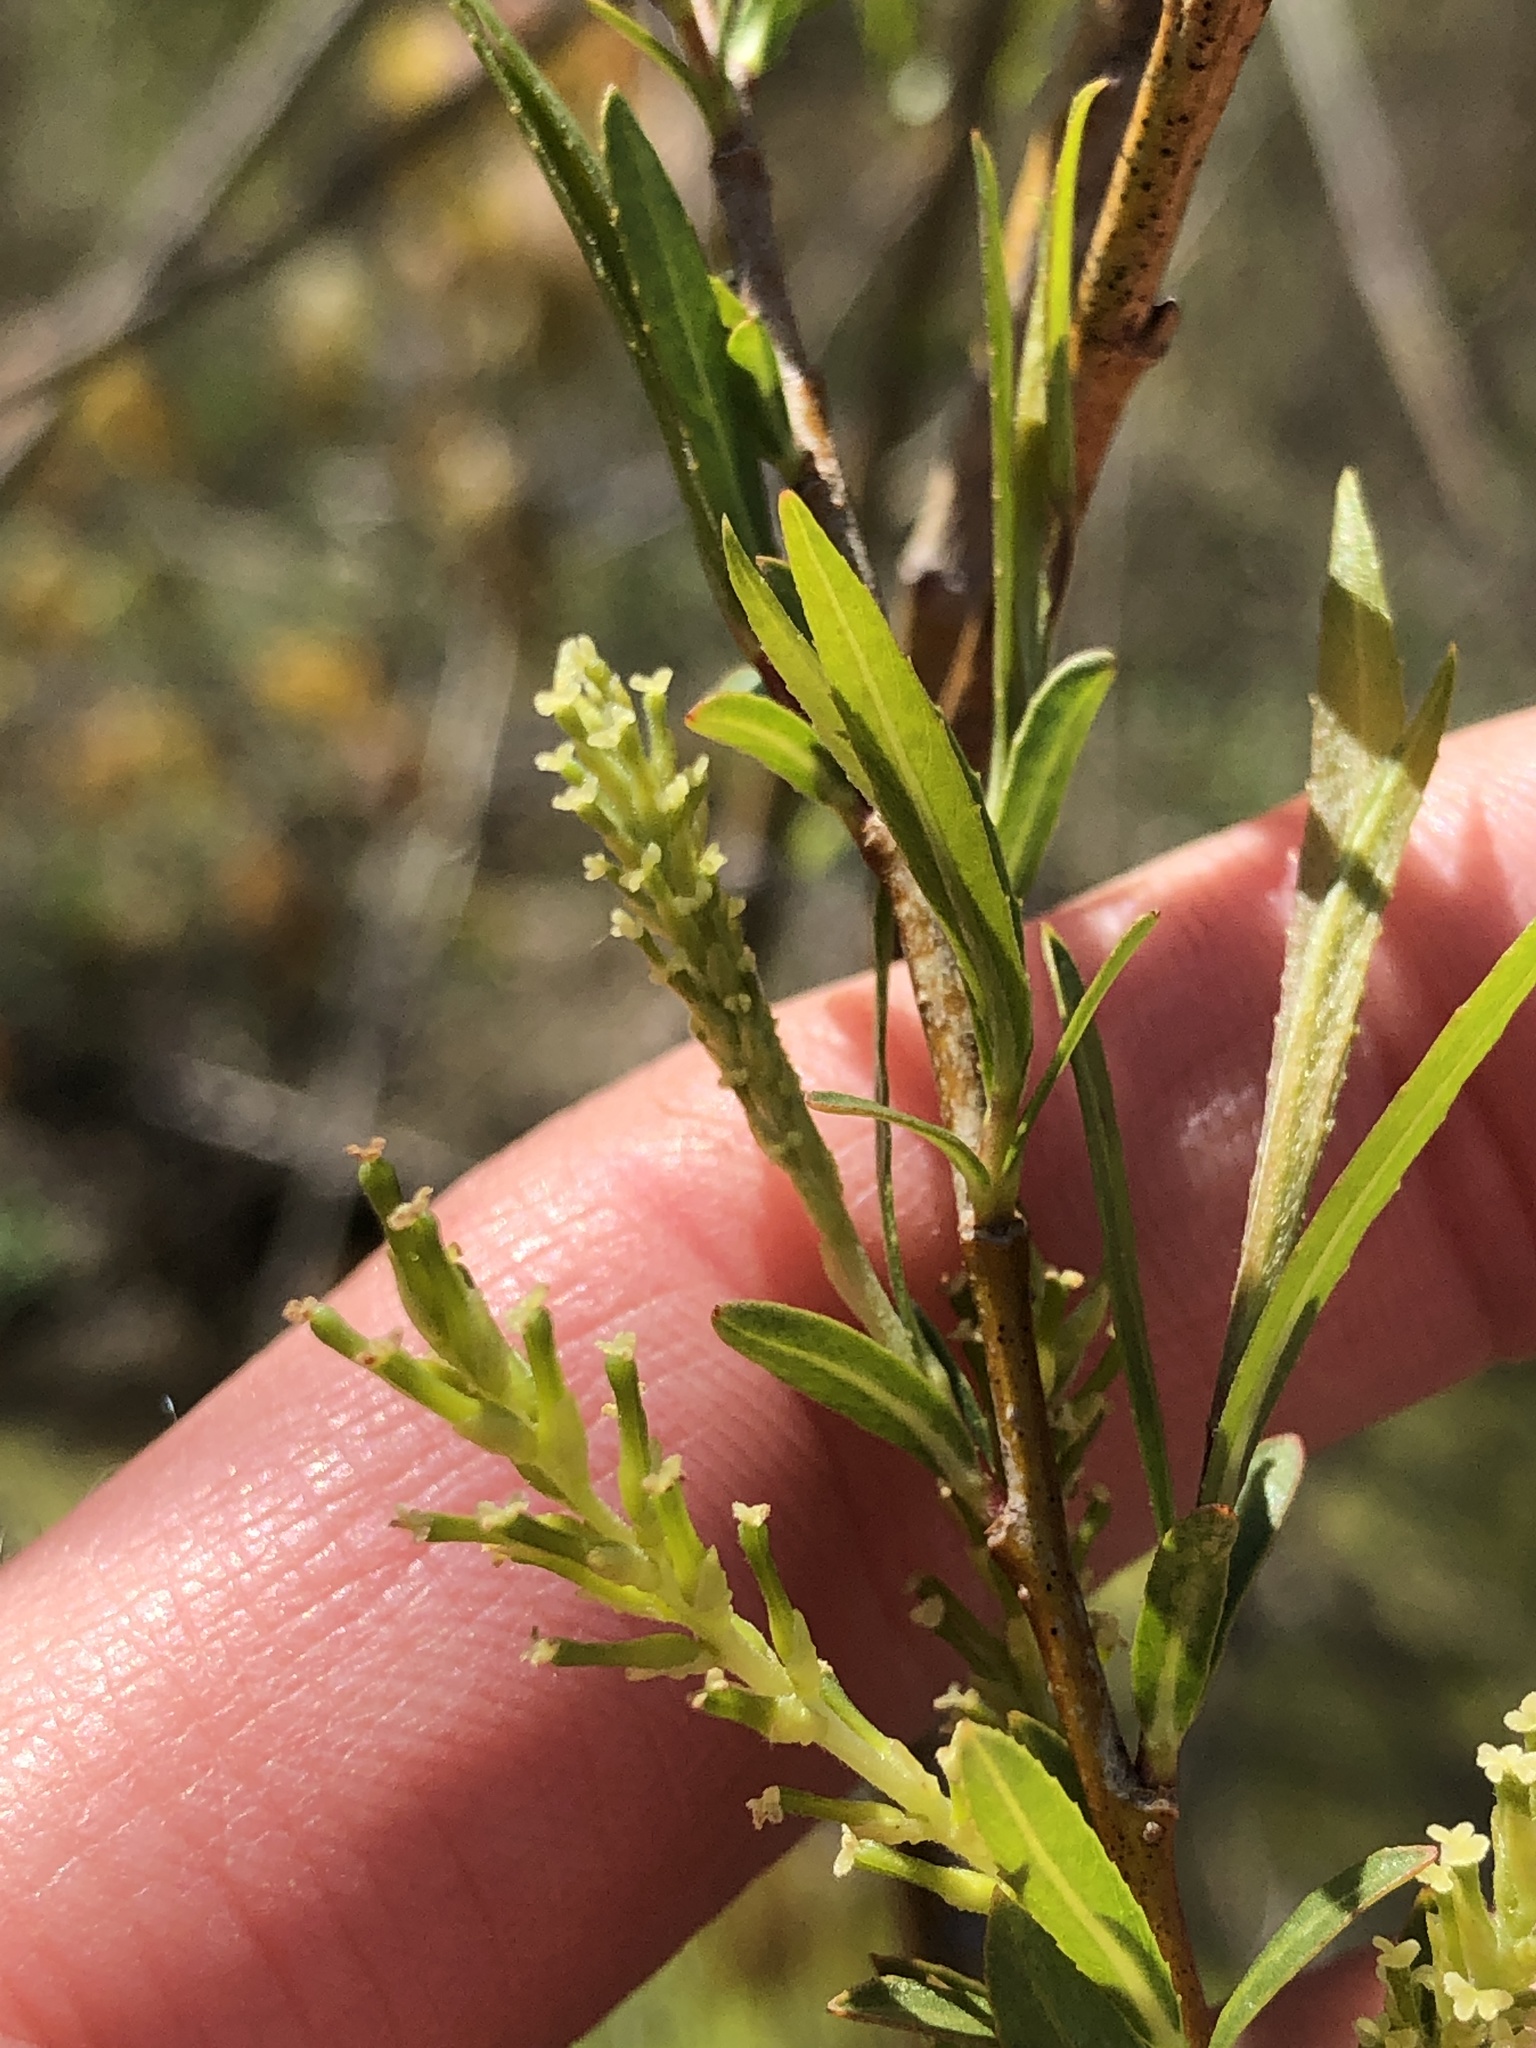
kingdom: Plantae
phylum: Tracheophyta
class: Magnoliopsida
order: Malpighiales
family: Salicaceae
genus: Salix
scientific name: Salix interior
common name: Sandbar willow
